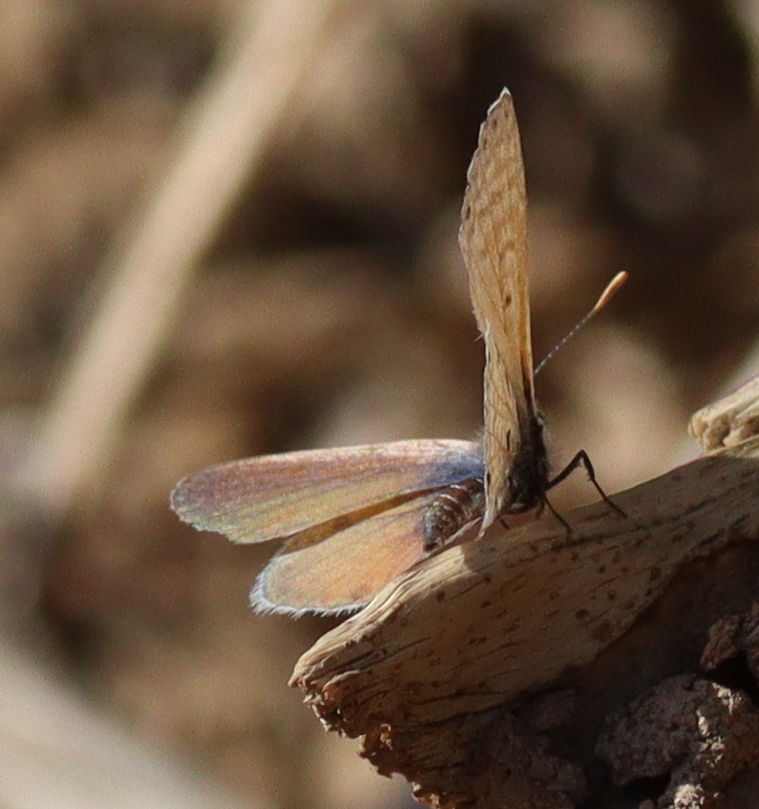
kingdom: Animalia
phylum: Arthropoda
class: Insecta
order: Lepidoptera
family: Lycaenidae
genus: Azanus
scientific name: Azanus jesous
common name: African babul blue
